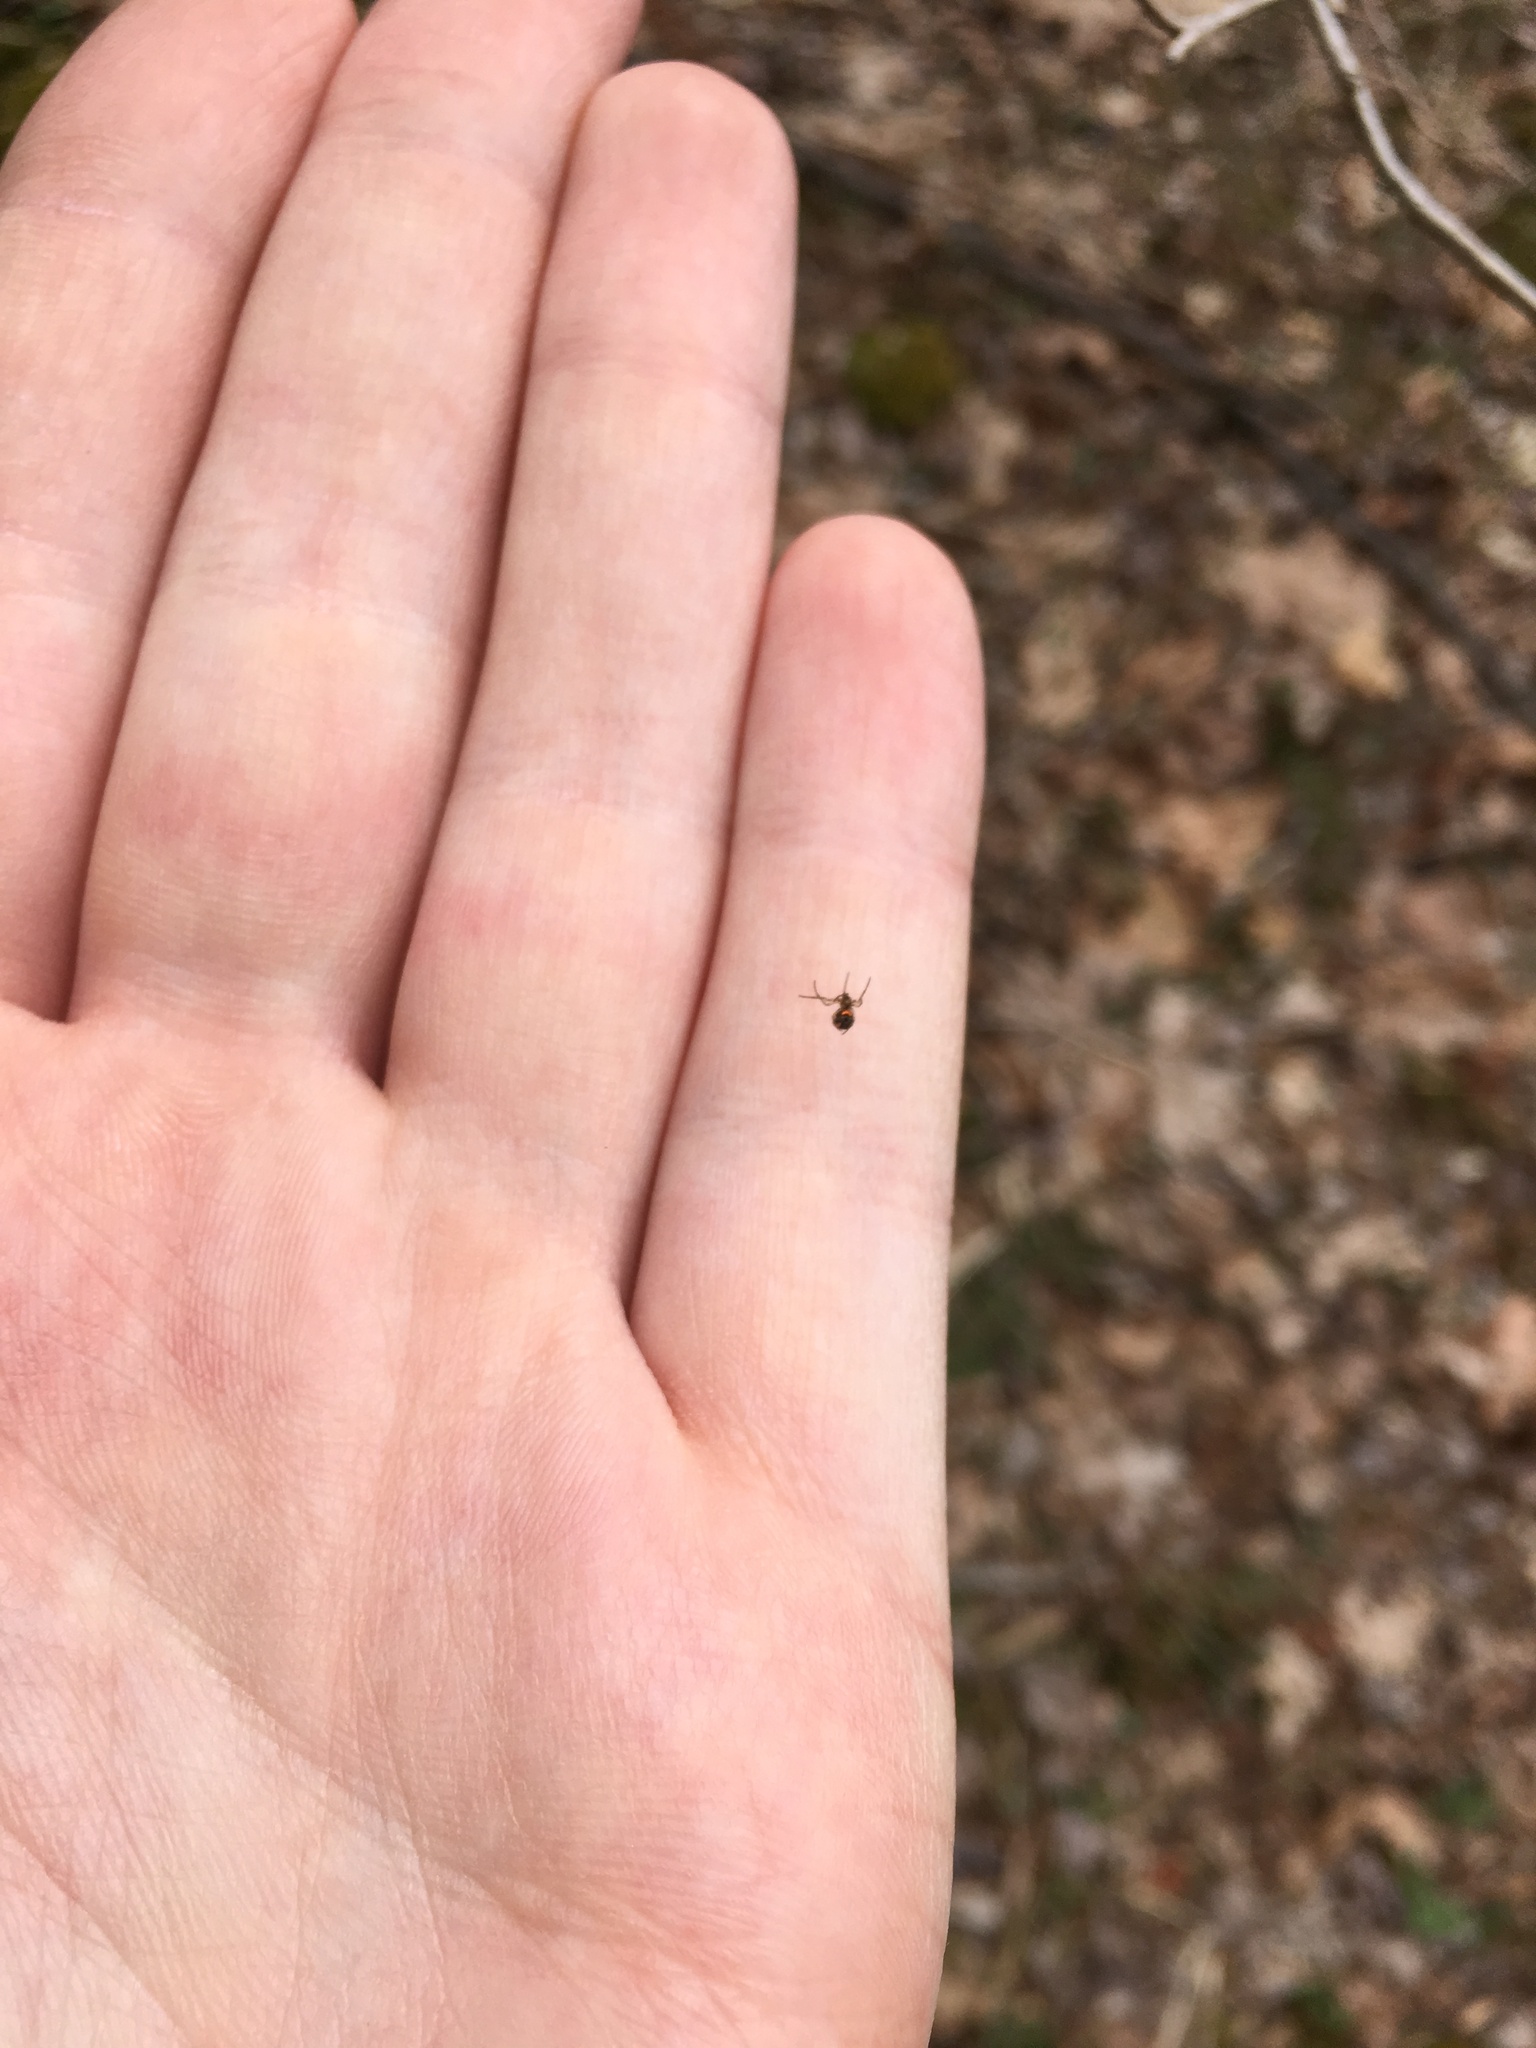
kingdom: Animalia
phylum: Arthropoda
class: Arachnida
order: Araneae
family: Tetragnathidae
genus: Leucauge
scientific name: Leucauge venusta
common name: Longjawed orb weavers
